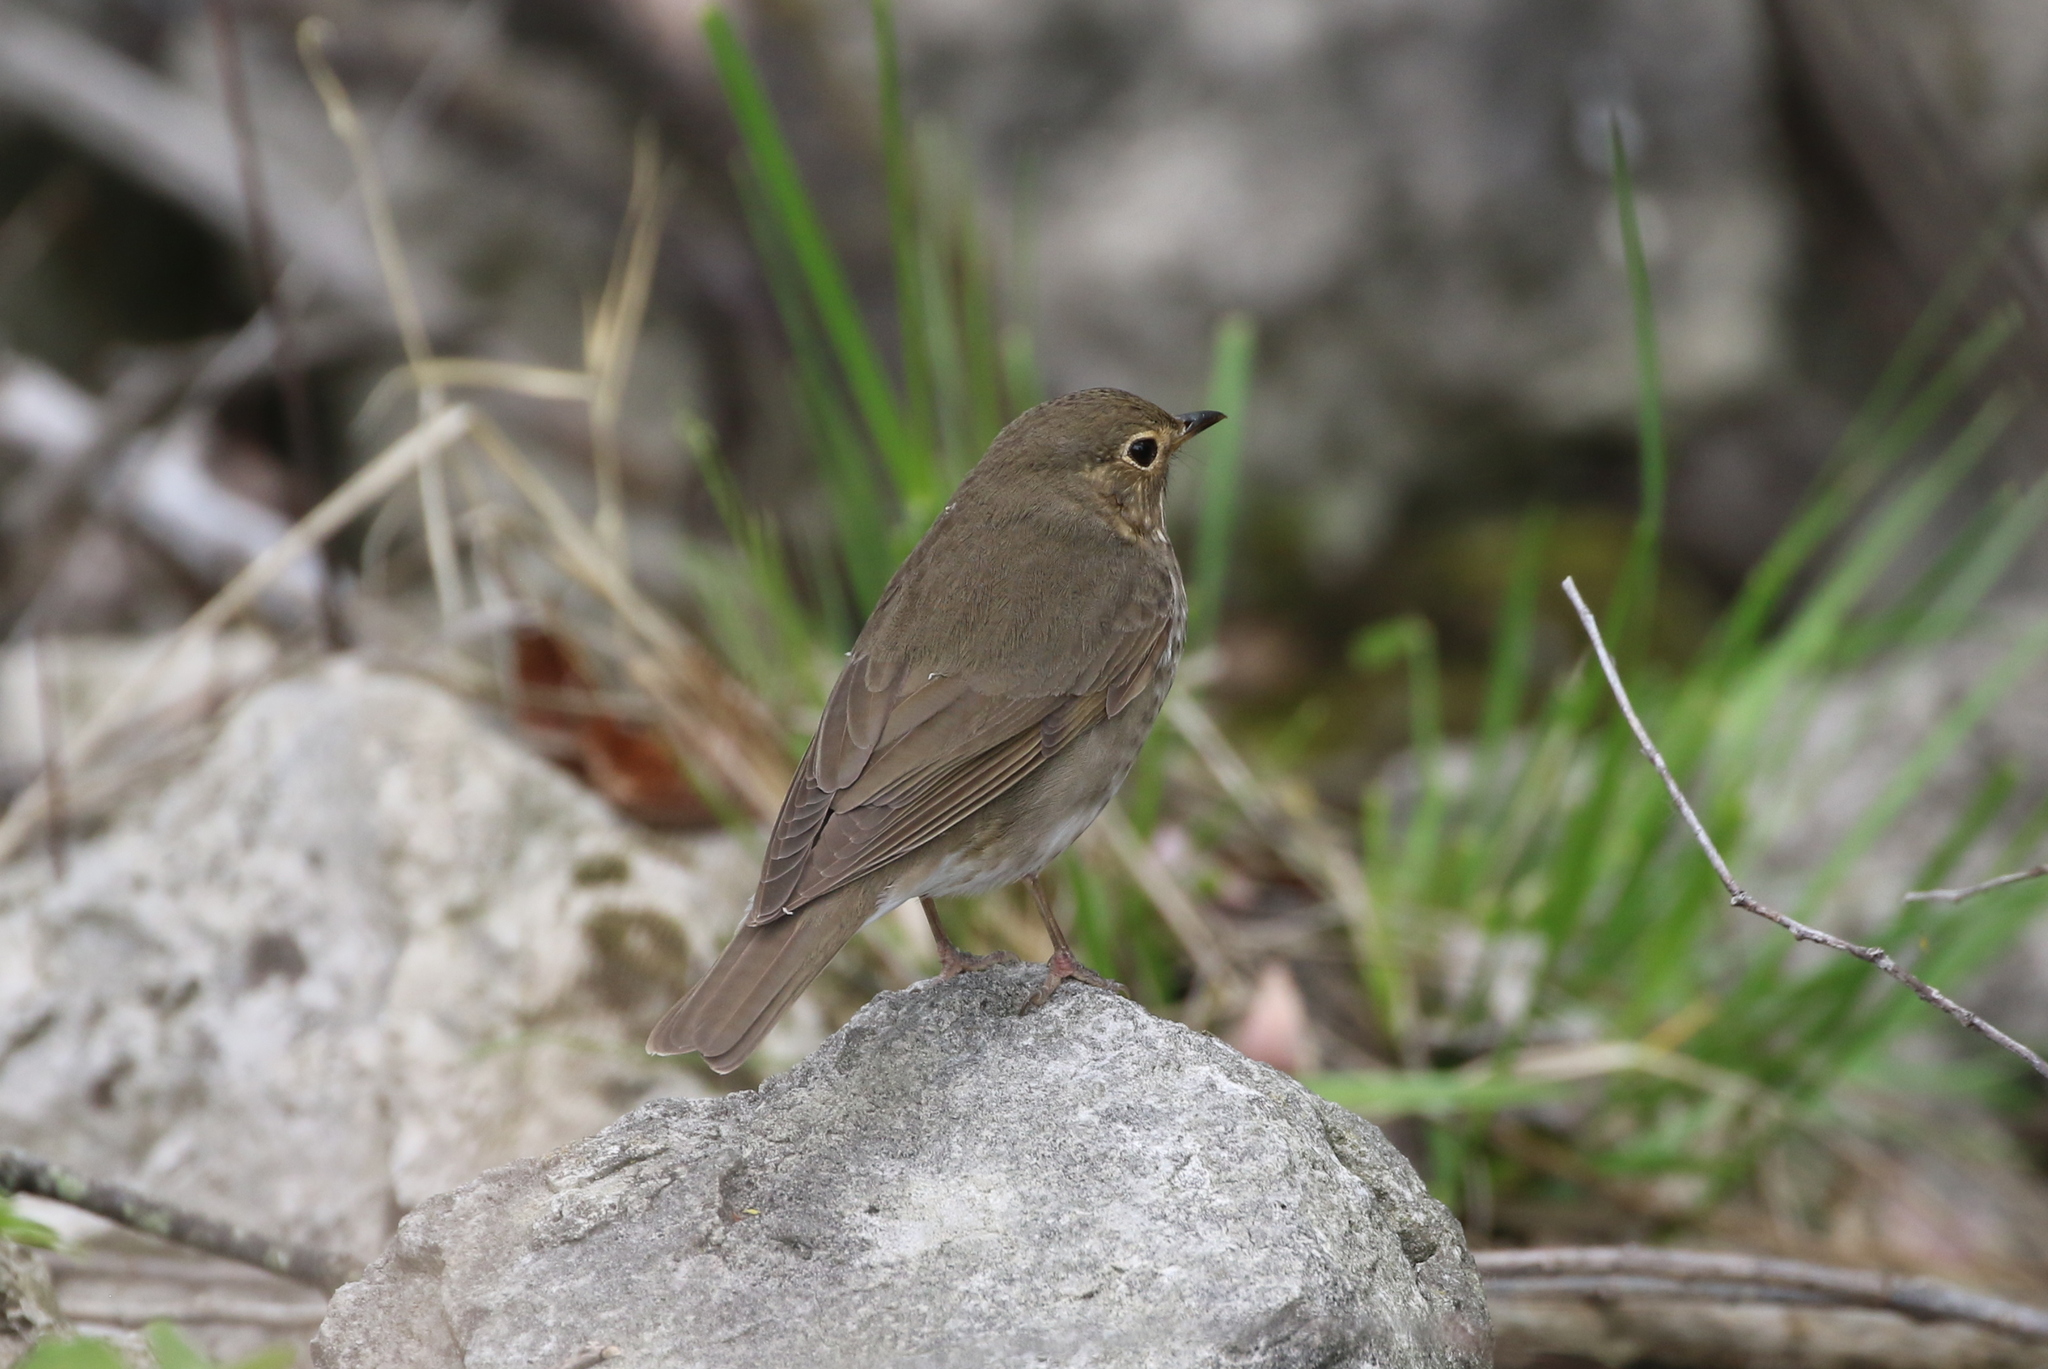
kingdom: Animalia
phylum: Chordata
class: Aves
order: Passeriformes
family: Turdidae
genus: Catharus
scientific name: Catharus ustulatus
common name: Swainson's thrush
